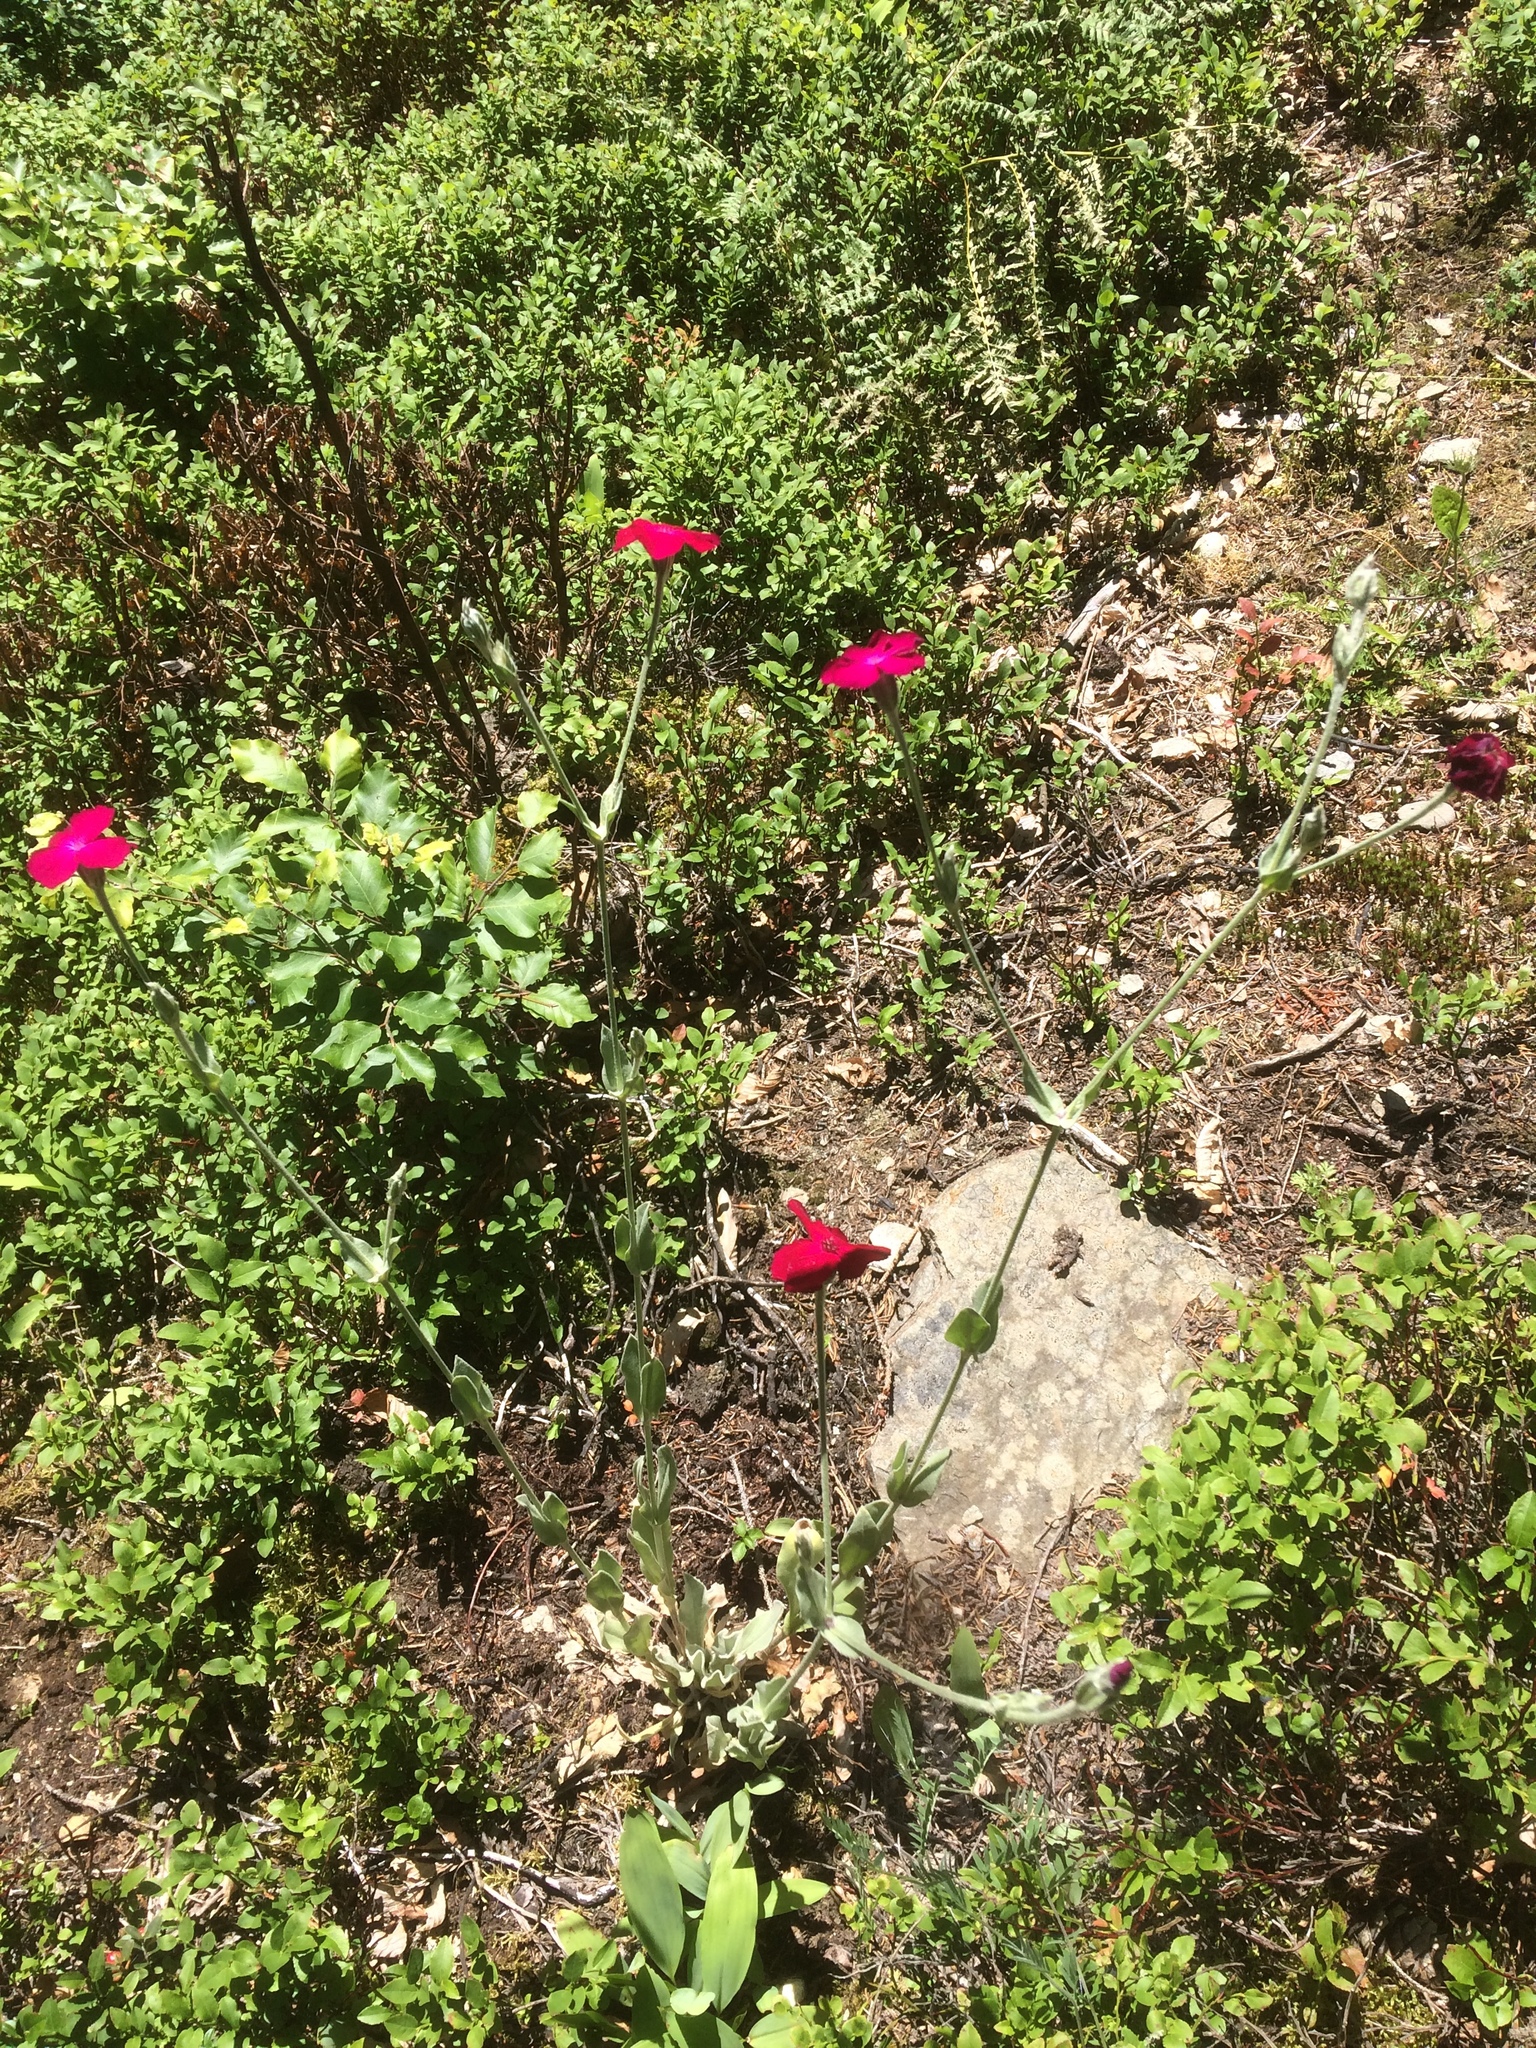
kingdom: Plantae
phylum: Tracheophyta
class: Magnoliopsida
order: Caryophyllales
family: Caryophyllaceae
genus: Silene
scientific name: Silene coronaria
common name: Rose campion
